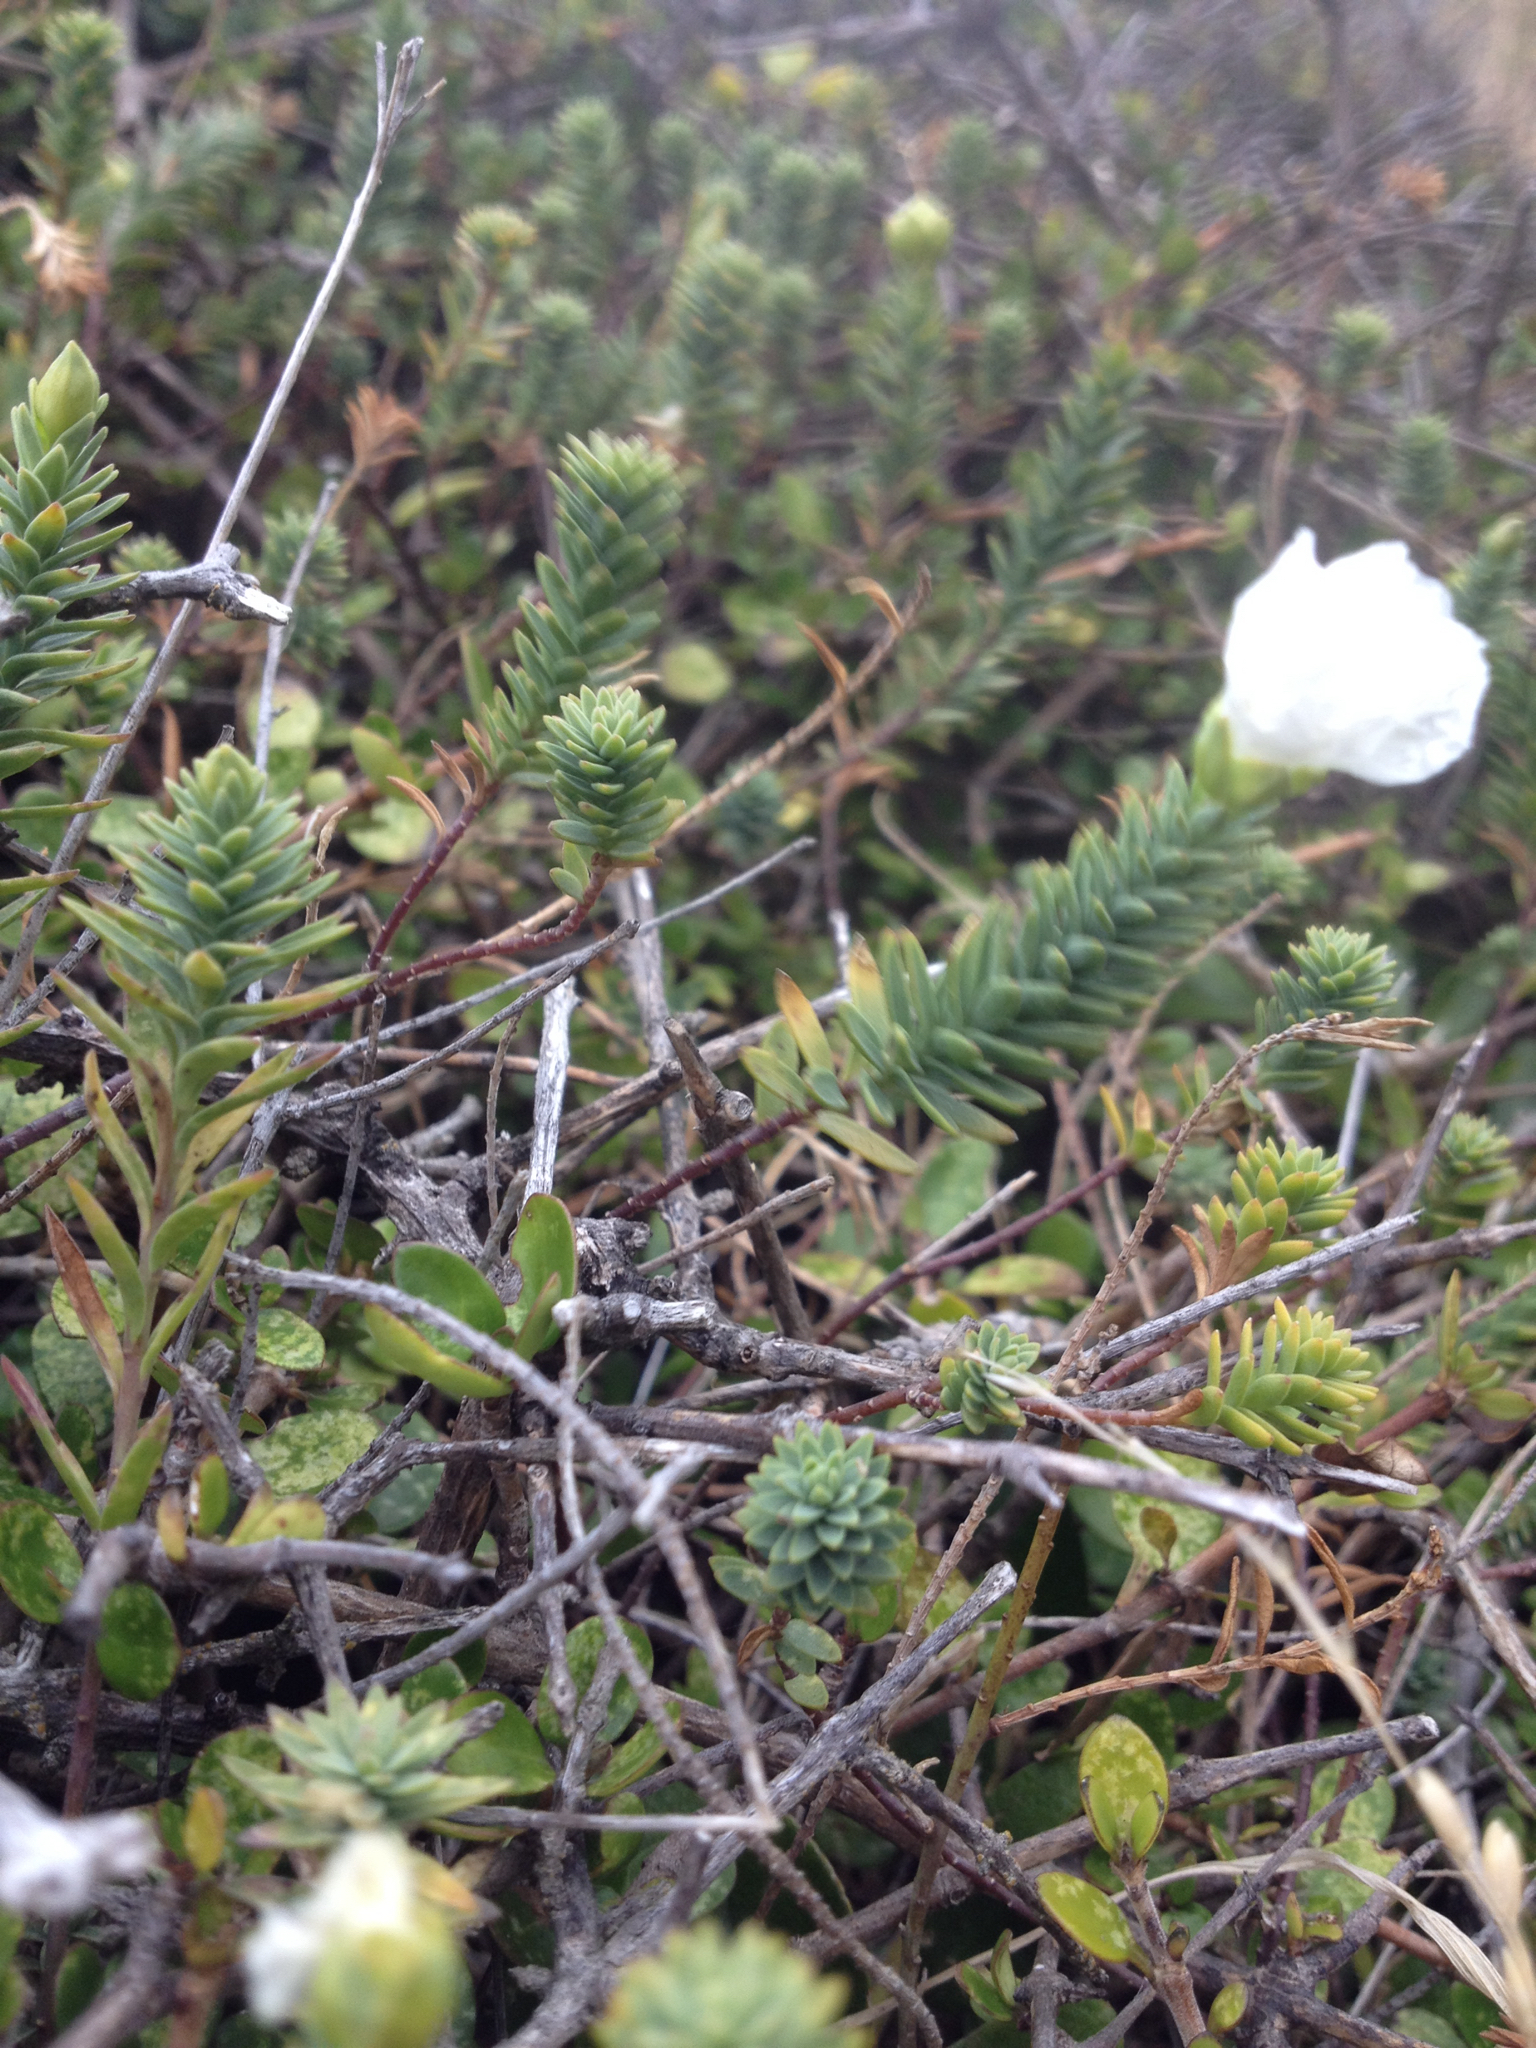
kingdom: Plantae
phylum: Tracheophyta
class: Magnoliopsida
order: Malpighiales
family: Linaceae
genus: Linum
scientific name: Linum monogynum
